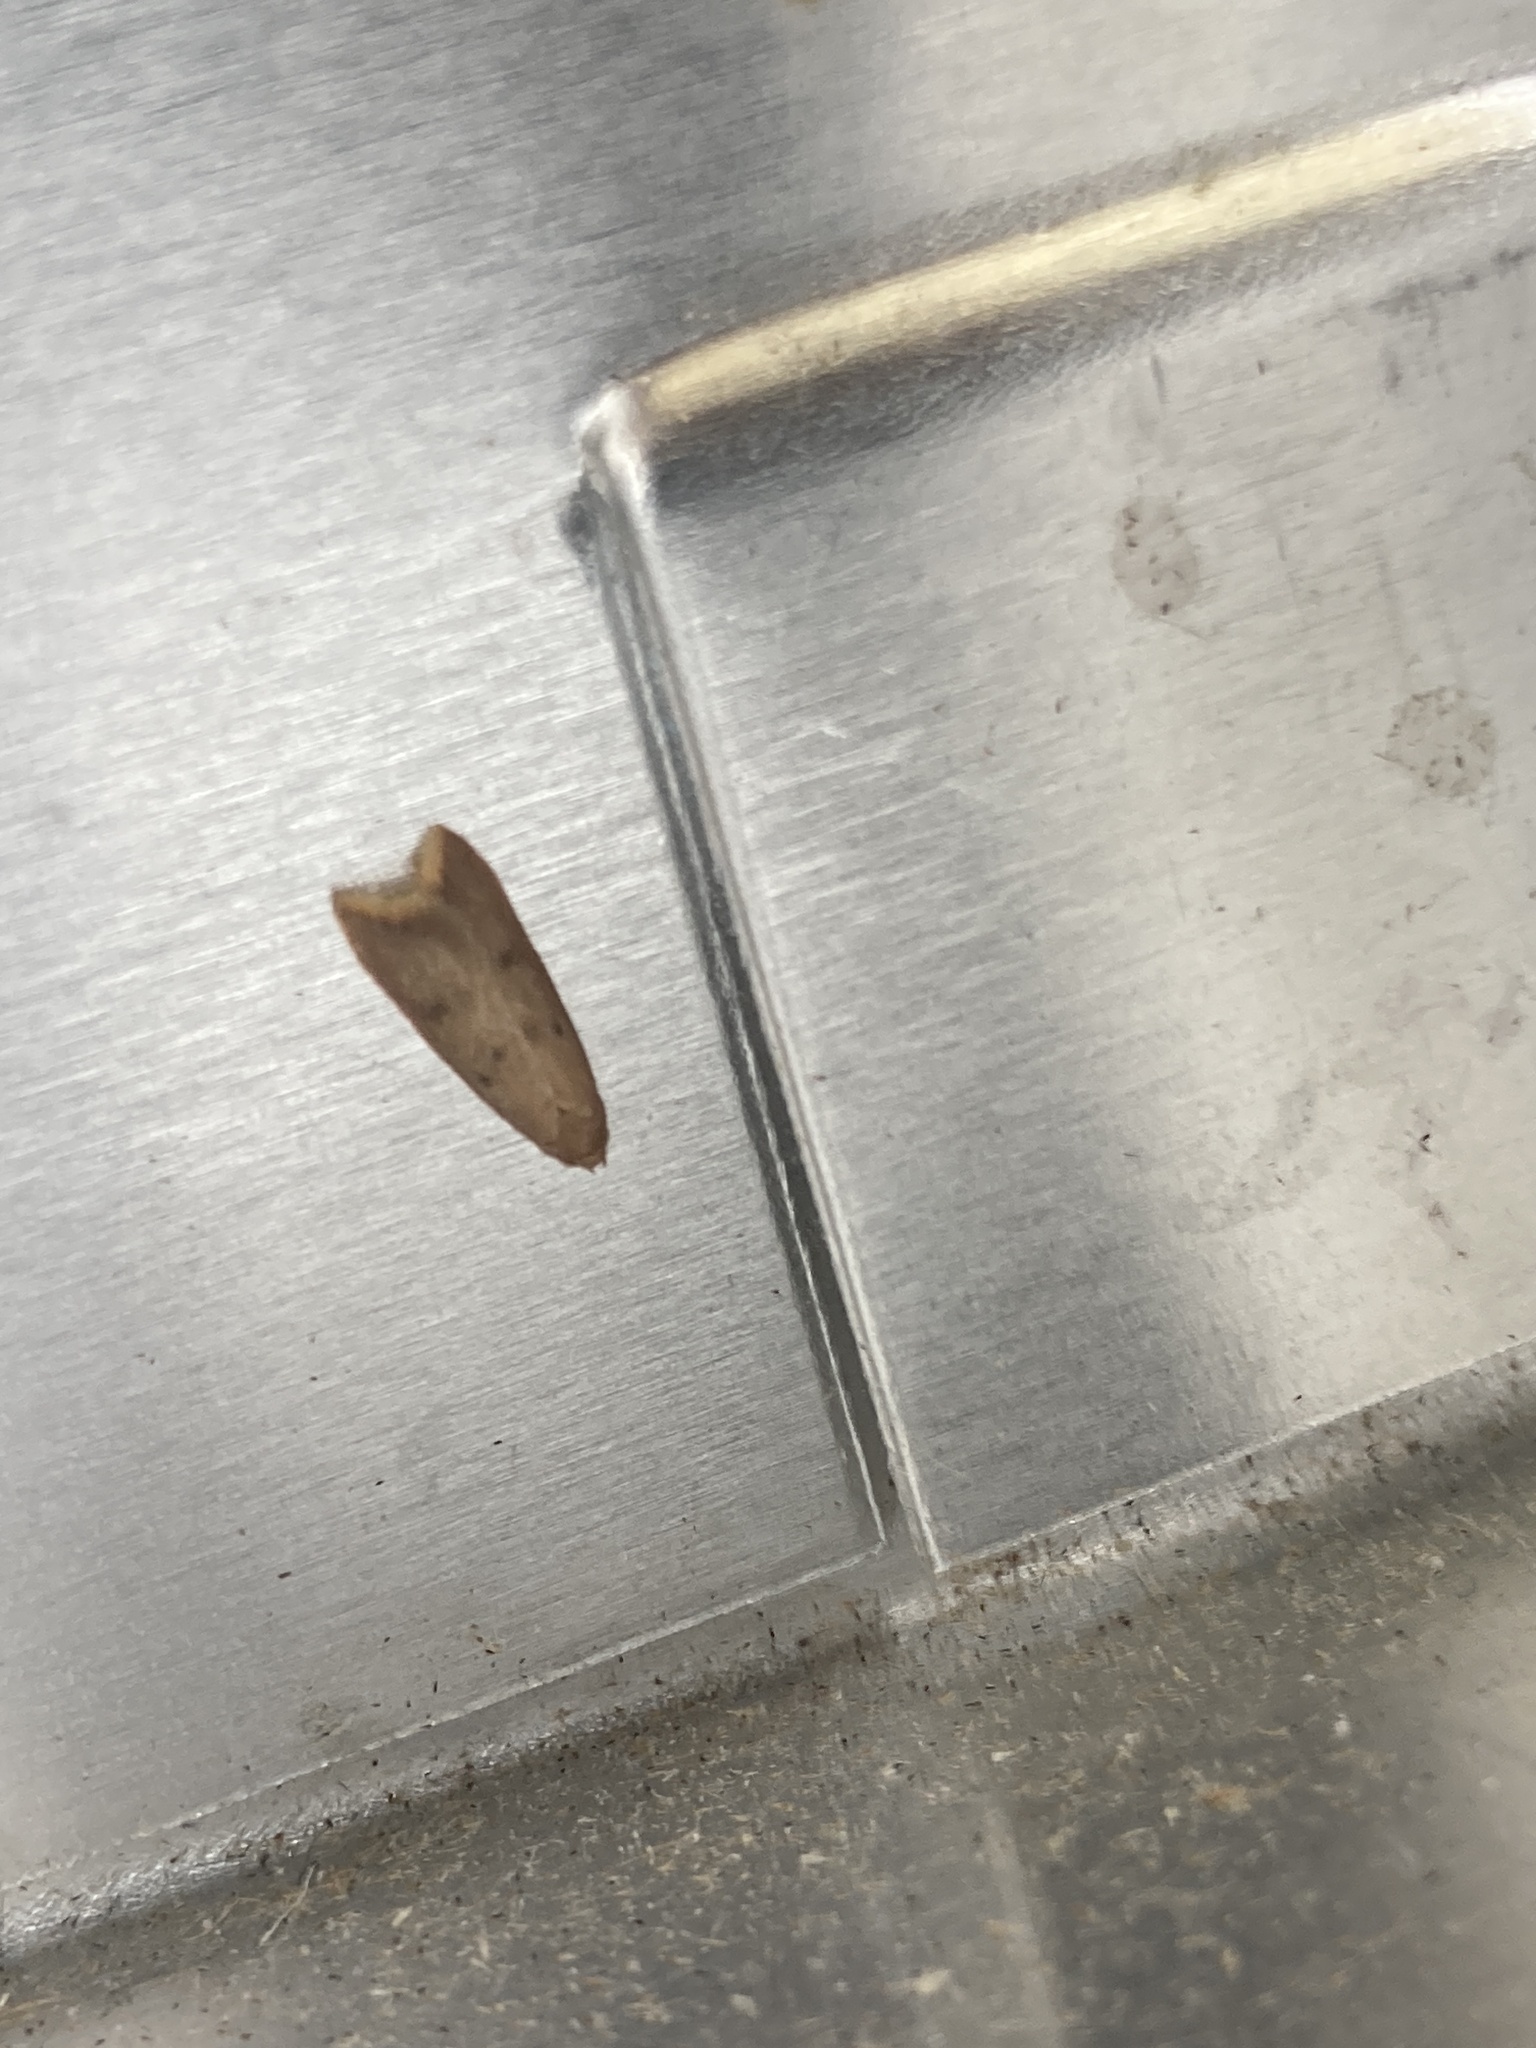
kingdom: Animalia
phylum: Arthropoda
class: Insecta
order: Lepidoptera
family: Oecophoridae
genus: Tachystola
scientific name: Tachystola acroxantha
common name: Ruddy streak
